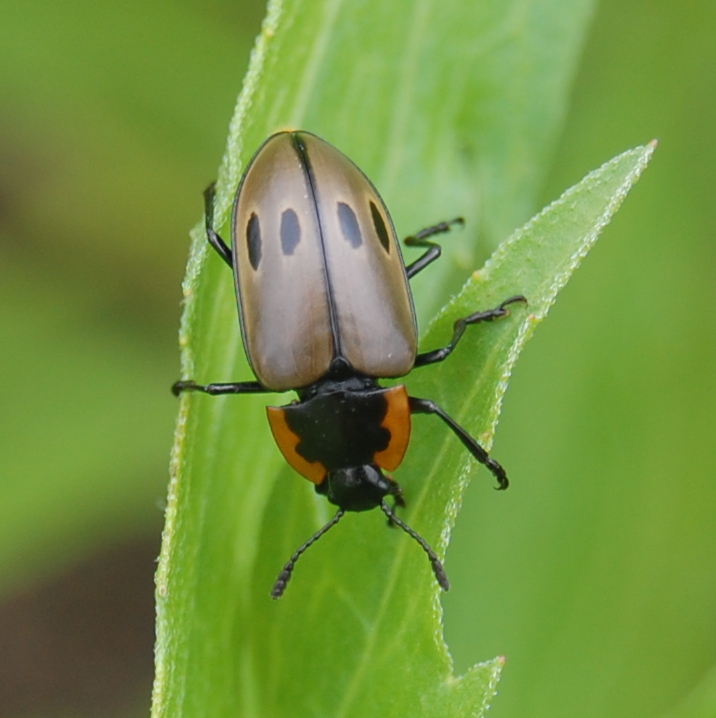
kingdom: Animalia
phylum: Arthropoda
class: Insecta
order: Coleoptera
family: Erotylidae
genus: Iphiclus
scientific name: Iphiclus
